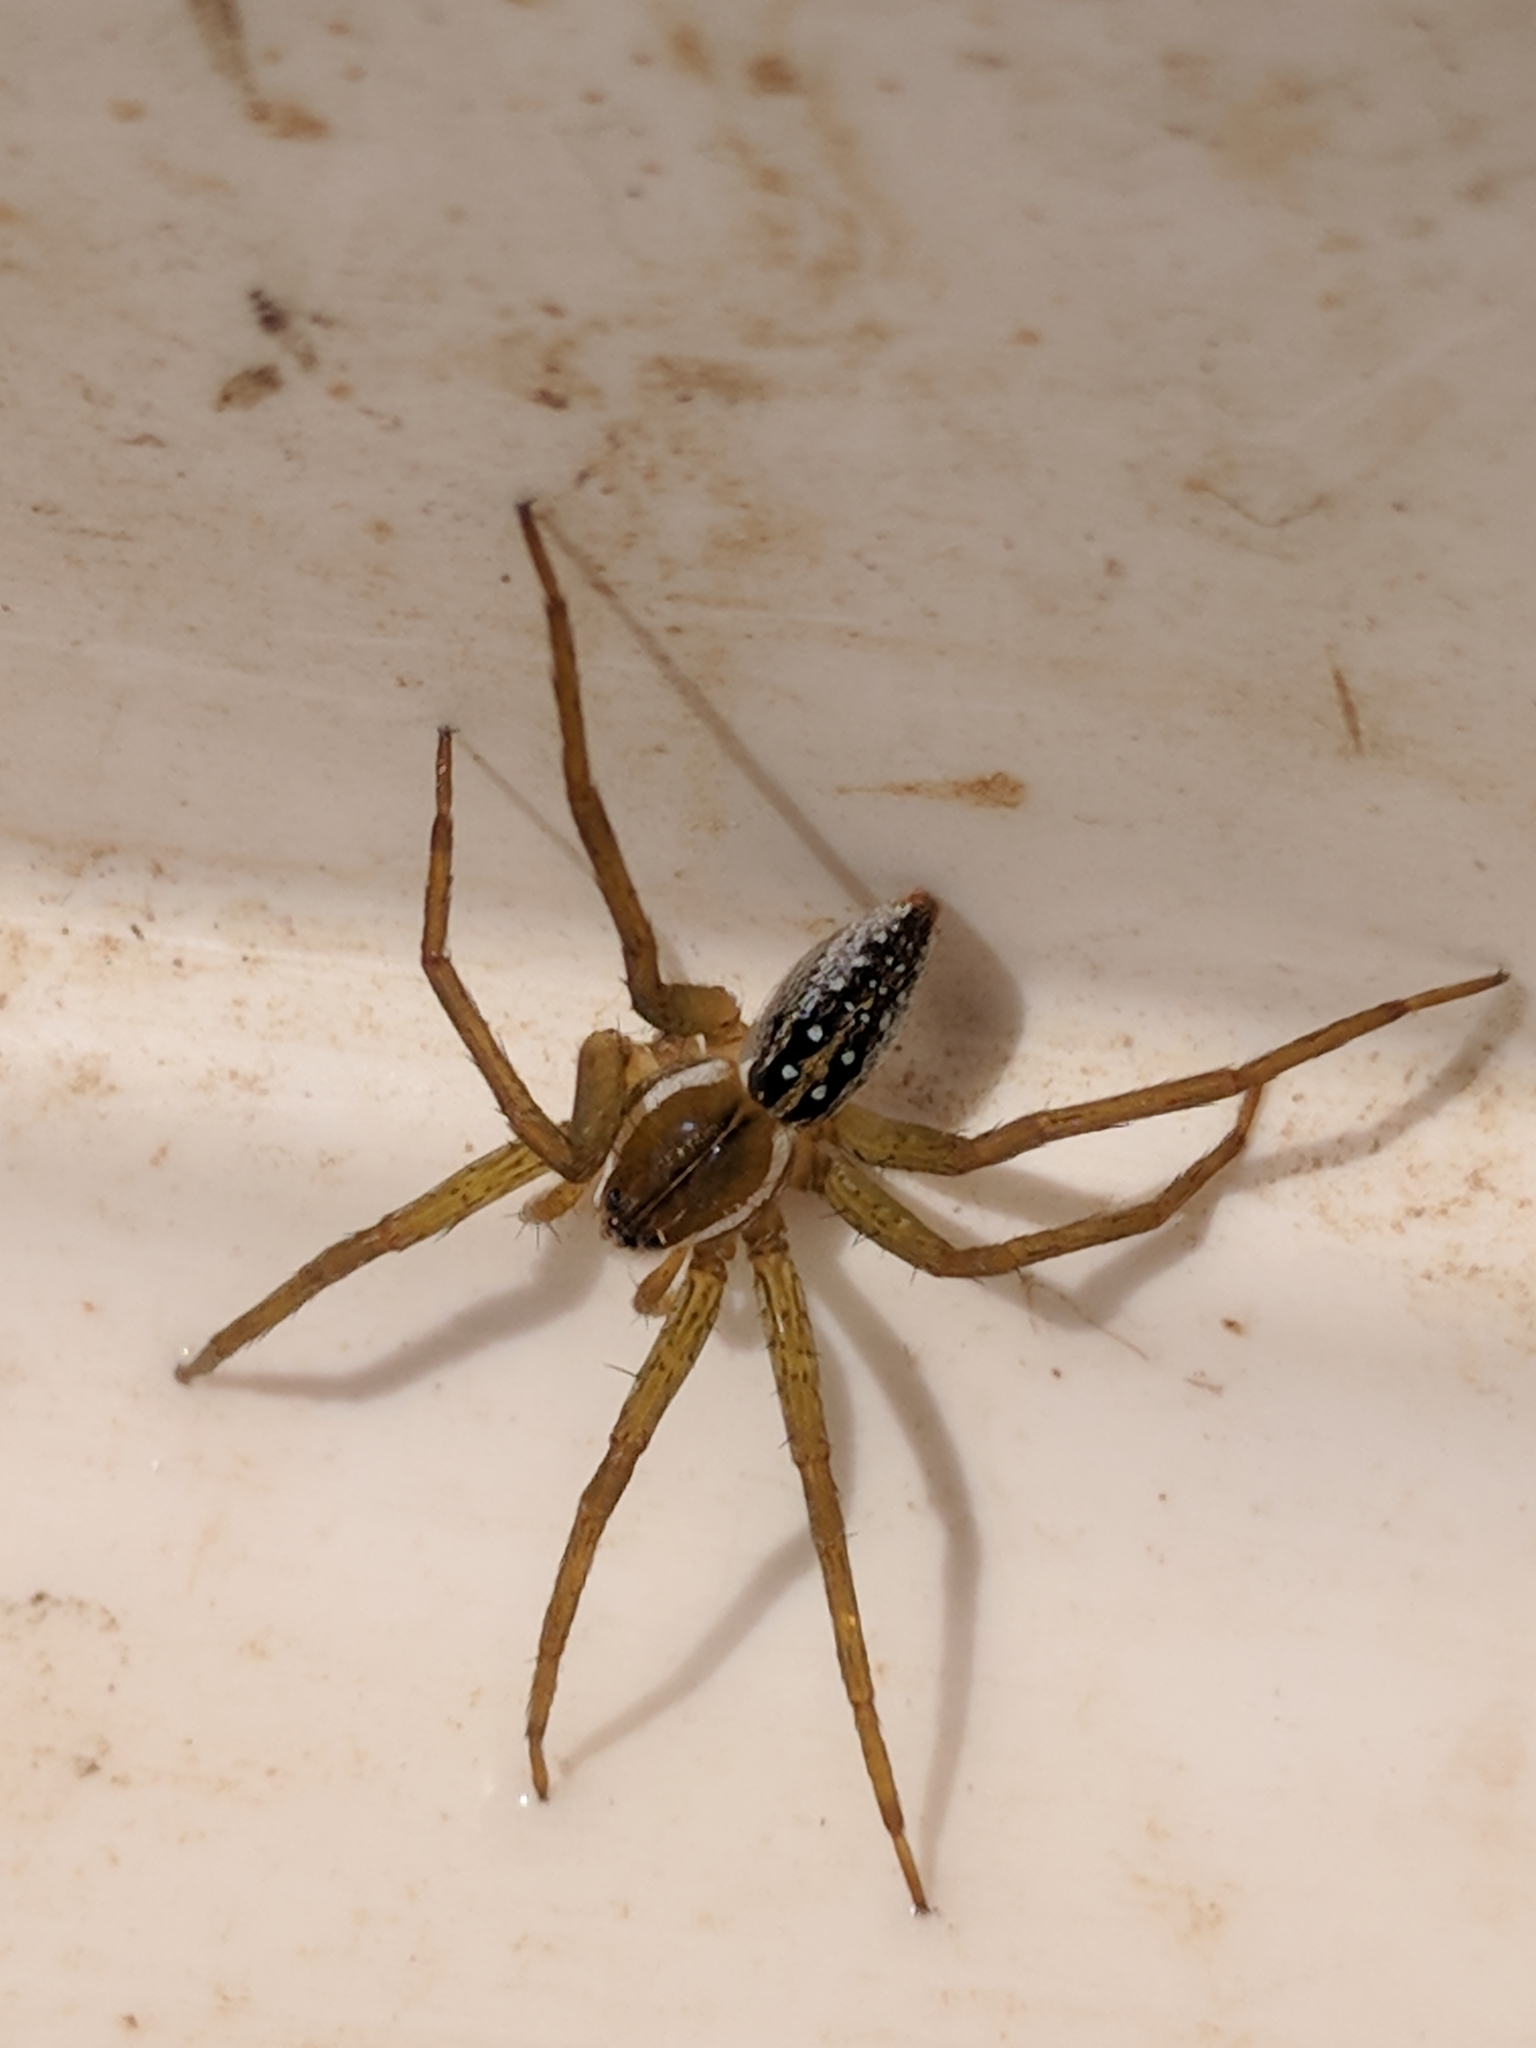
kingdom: Animalia
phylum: Arthropoda
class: Arachnida
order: Araneae
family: Pisauridae
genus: Dolomedes
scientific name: Dolomedes triton
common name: Six-spotted fishing spider
